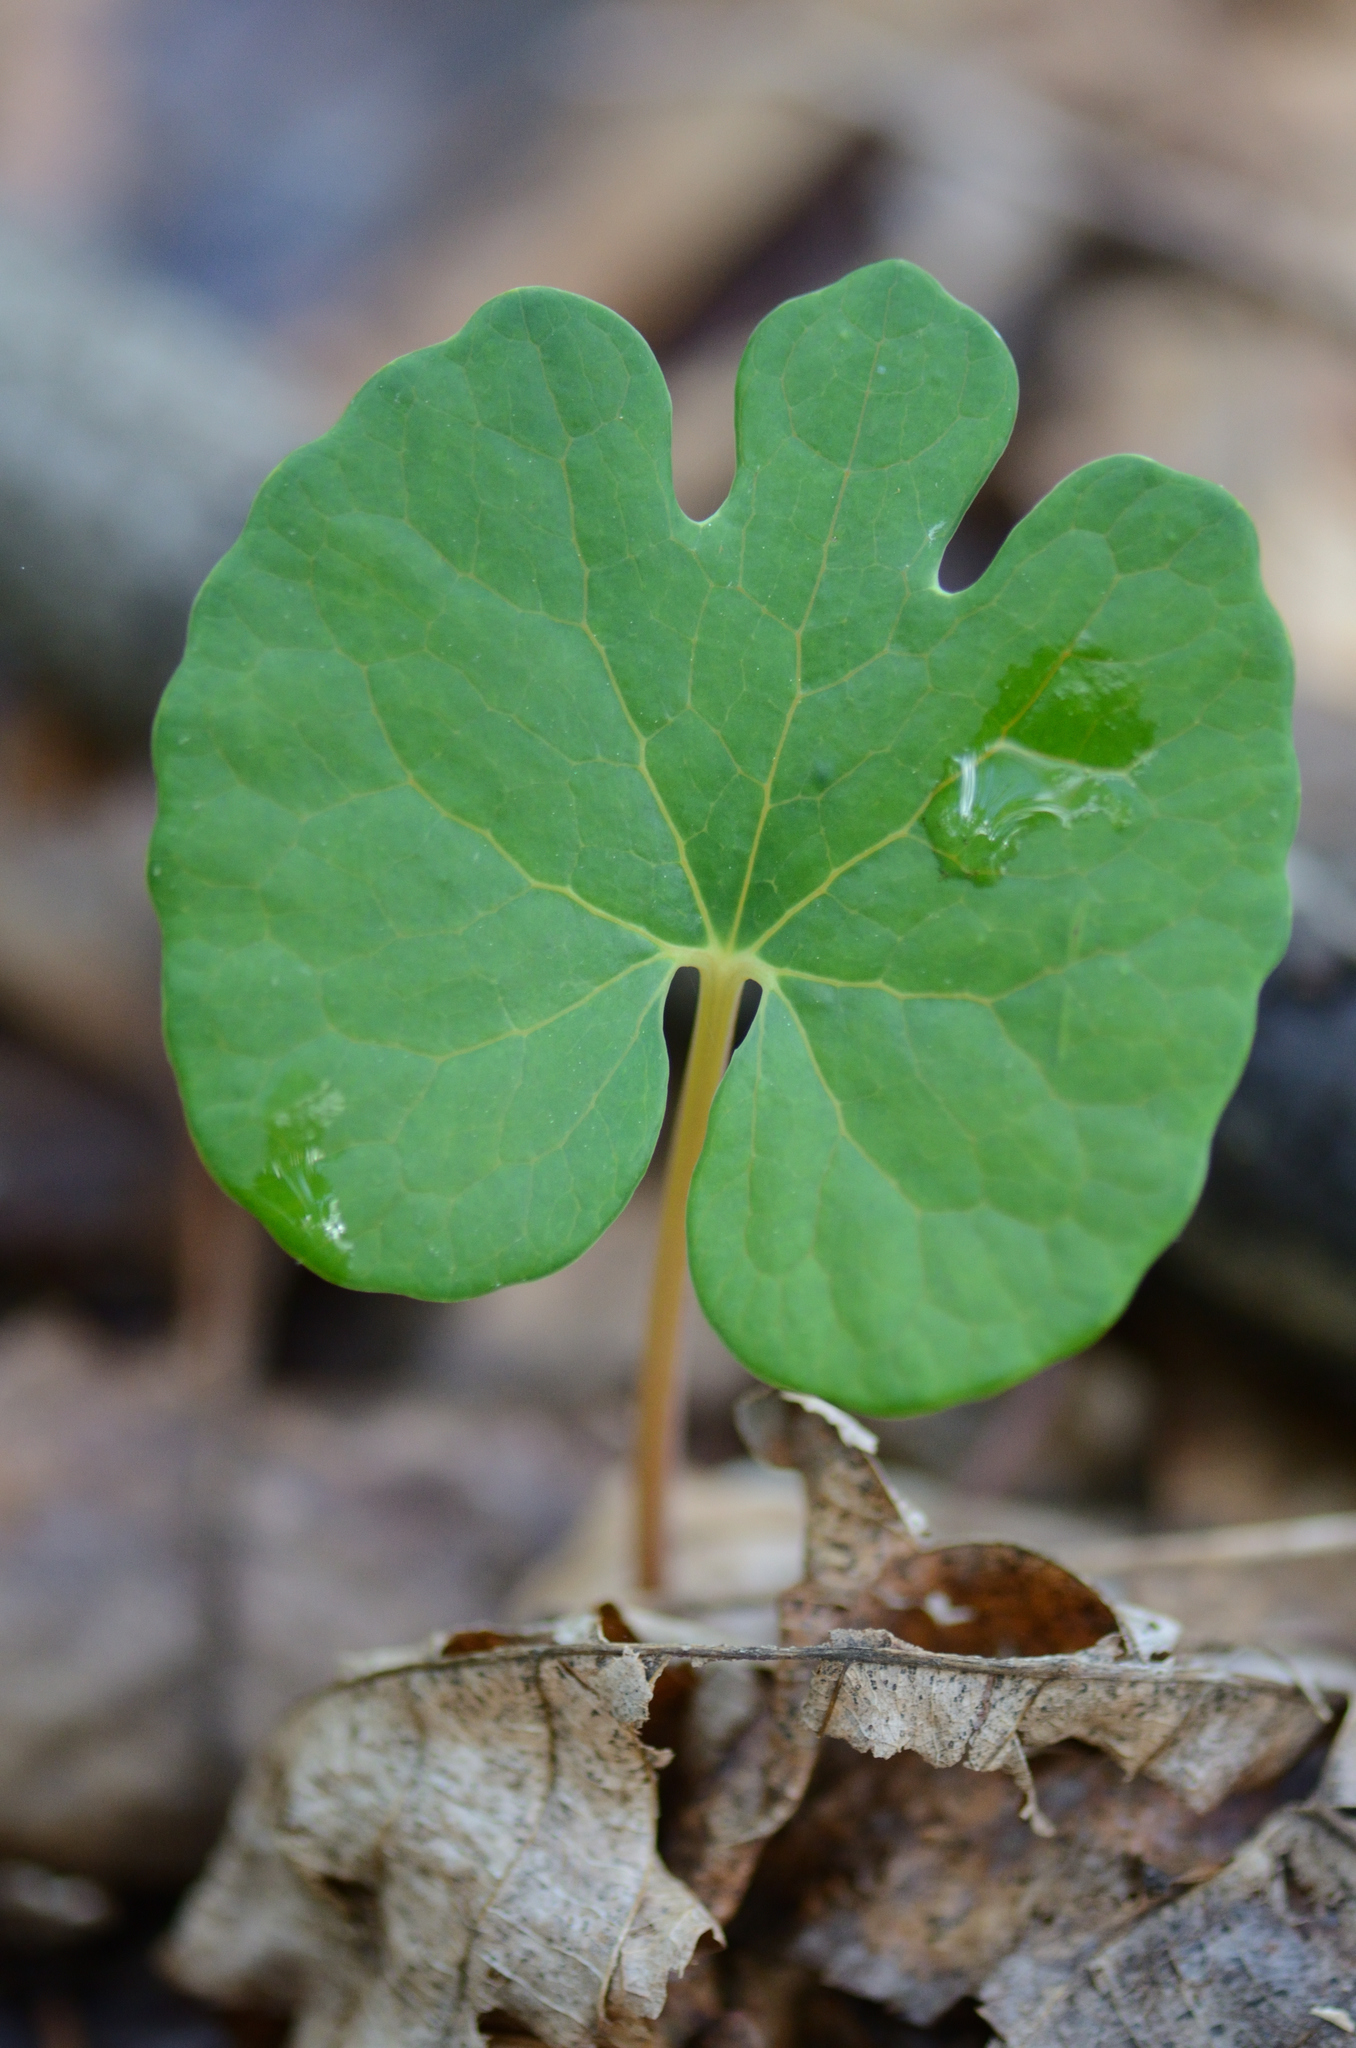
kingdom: Plantae
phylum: Tracheophyta
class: Magnoliopsida
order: Ranunculales
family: Papaveraceae
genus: Sanguinaria
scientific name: Sanguinaria canadensis
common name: Bloodroot
